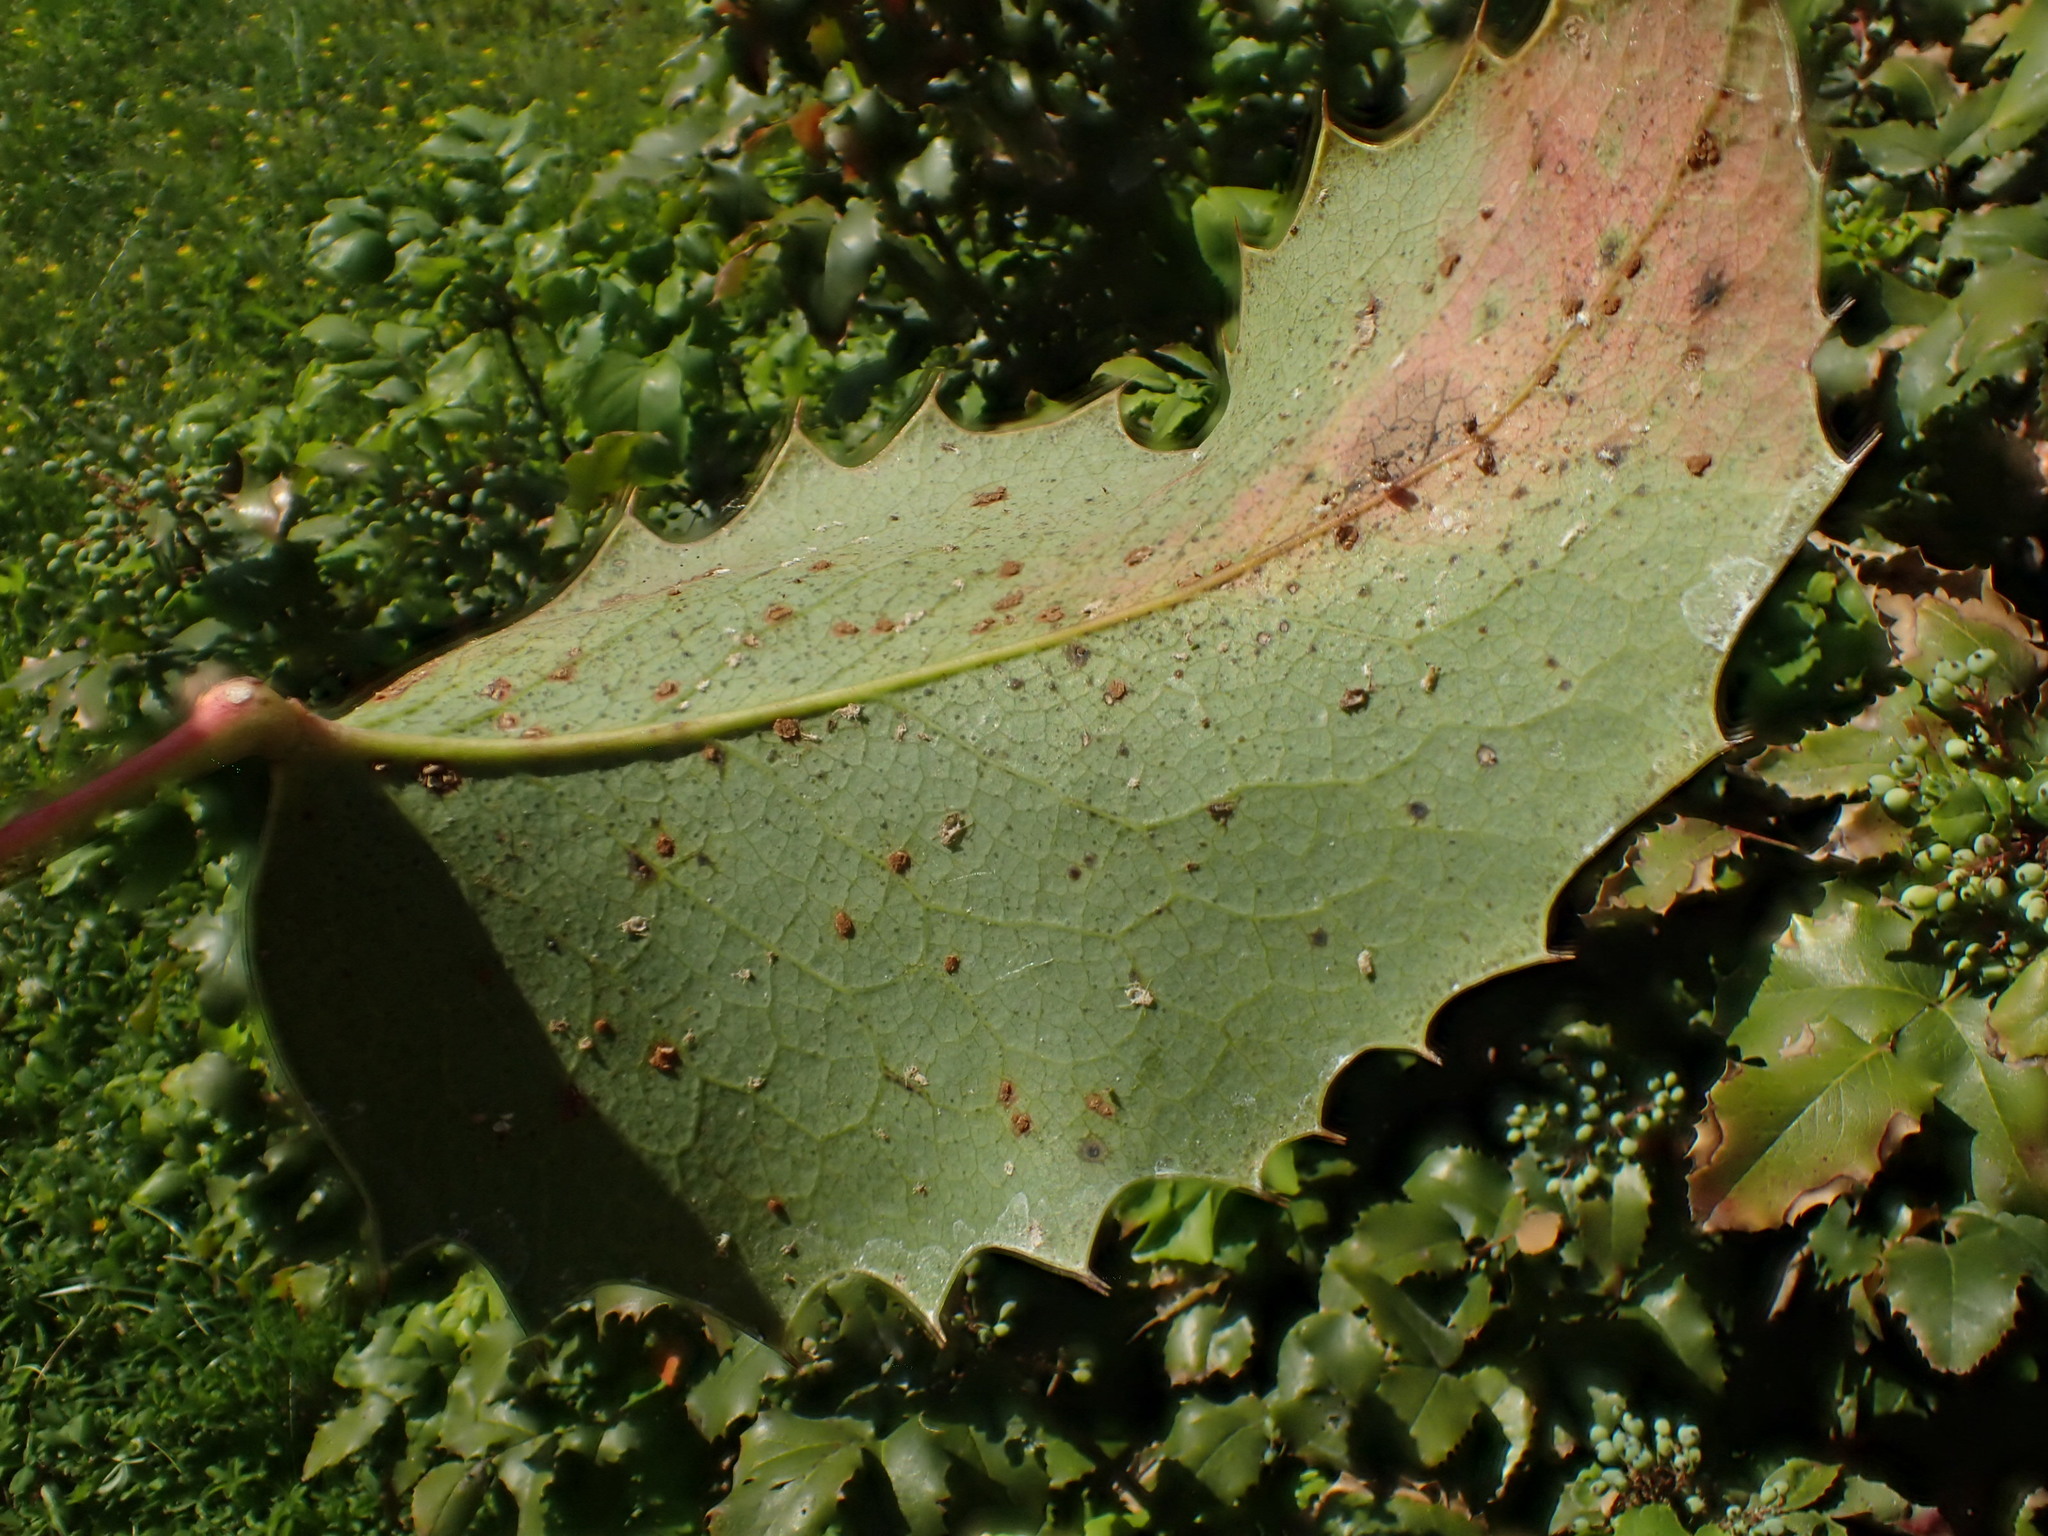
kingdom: Fungi
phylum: Basidiomycota
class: Pucciniomycetes
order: Pucciniales
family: Pucciniaceae
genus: Cumminsiella
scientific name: Cumminsiella mirabilissima
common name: Mahonia rust
